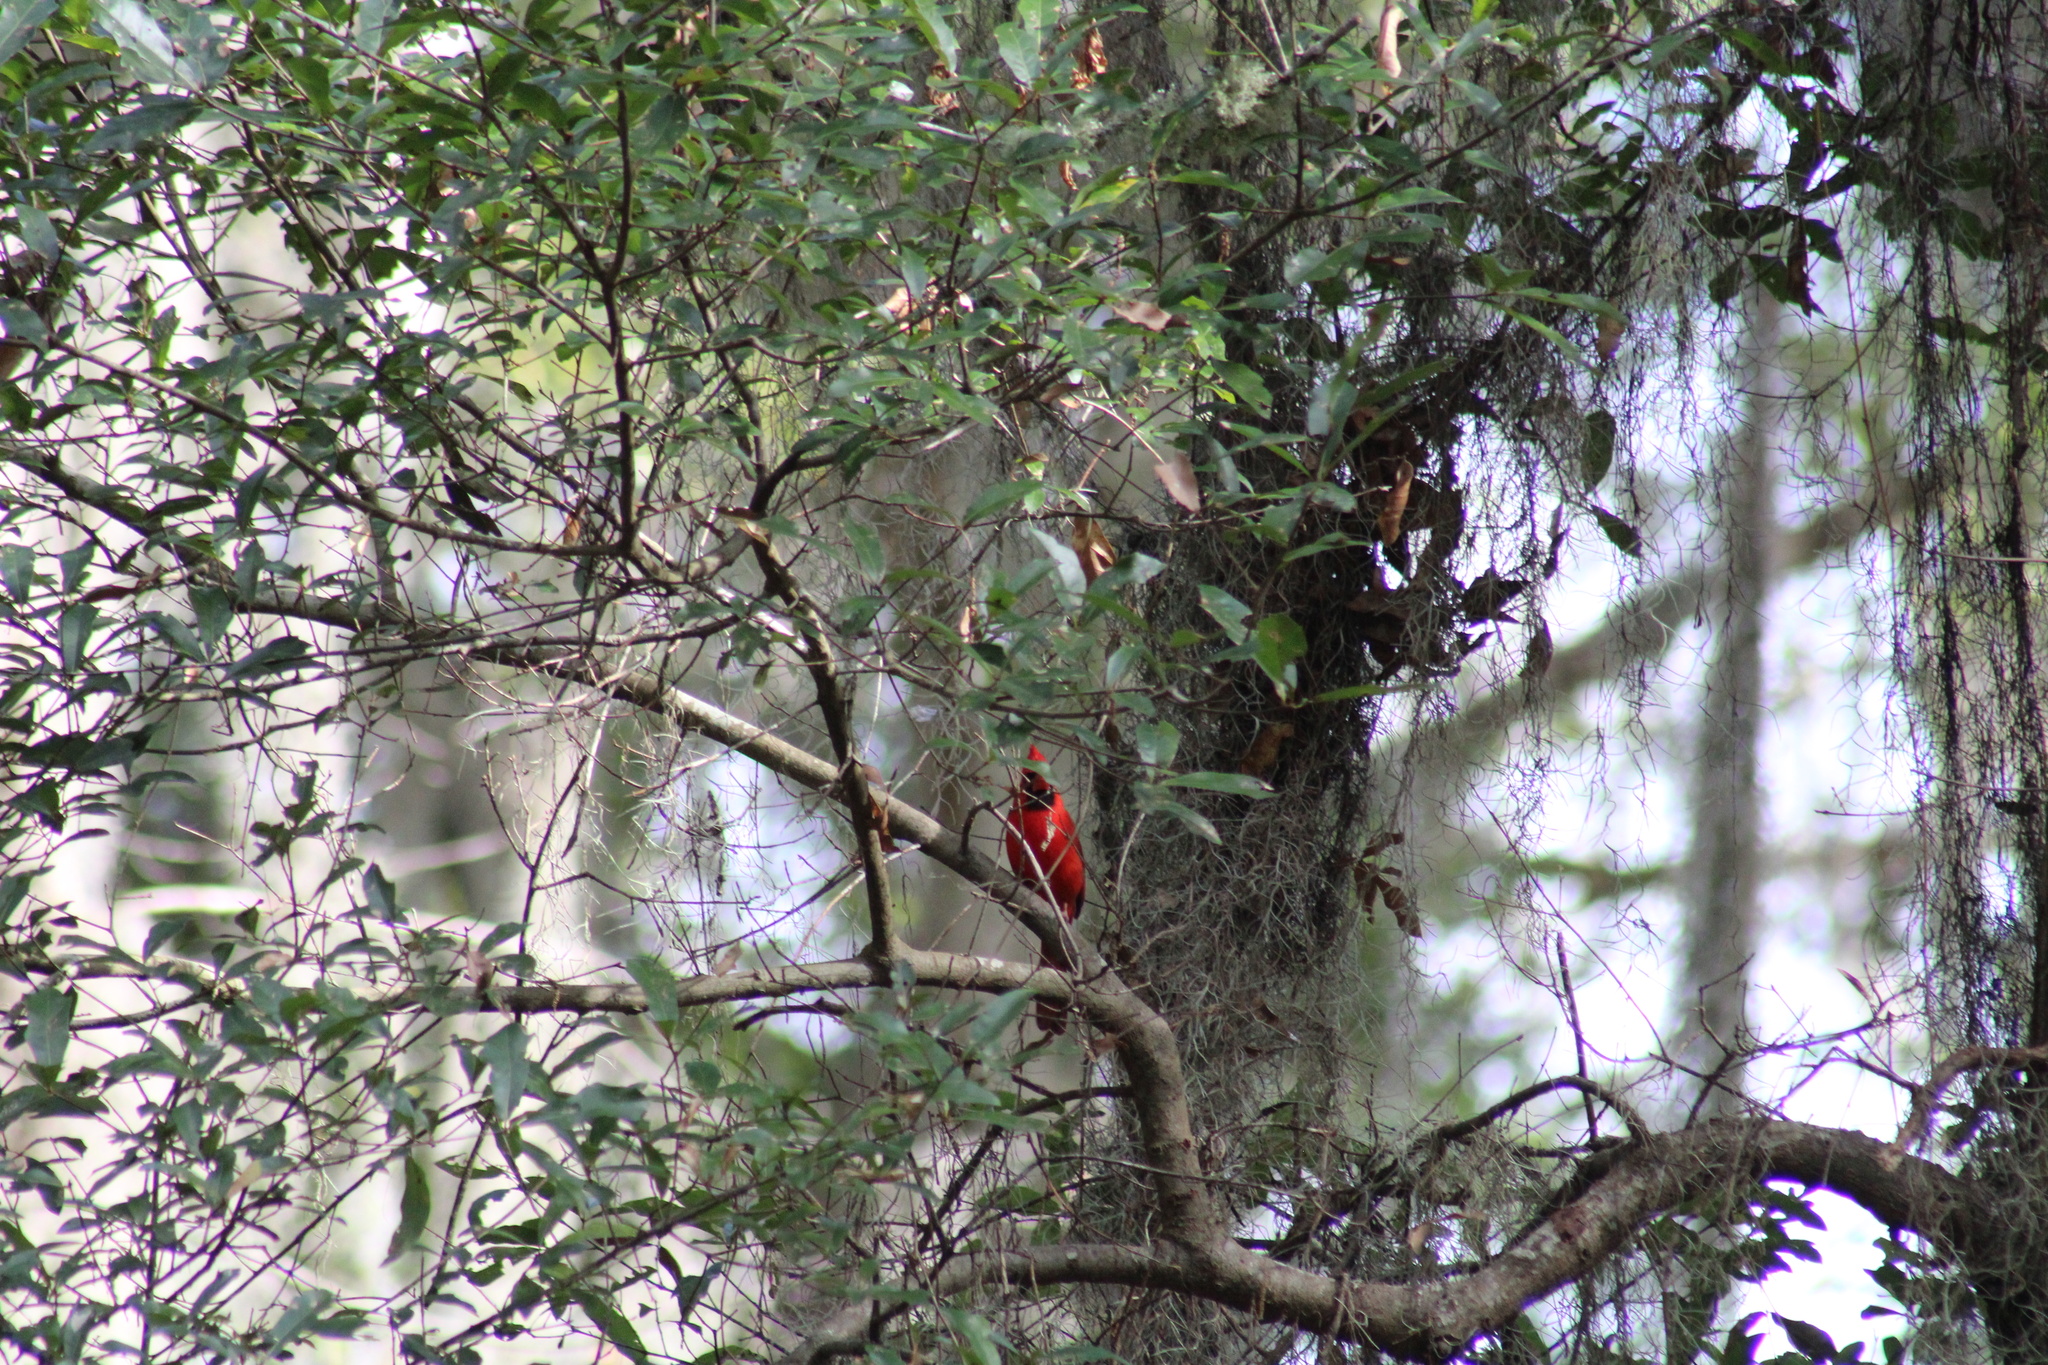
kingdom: Animalia
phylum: Chordata
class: Aves
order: Passeriformes
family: Cardinalidae
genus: Cardinalis
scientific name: Cardinalis cardinalis
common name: Northern cardinal
